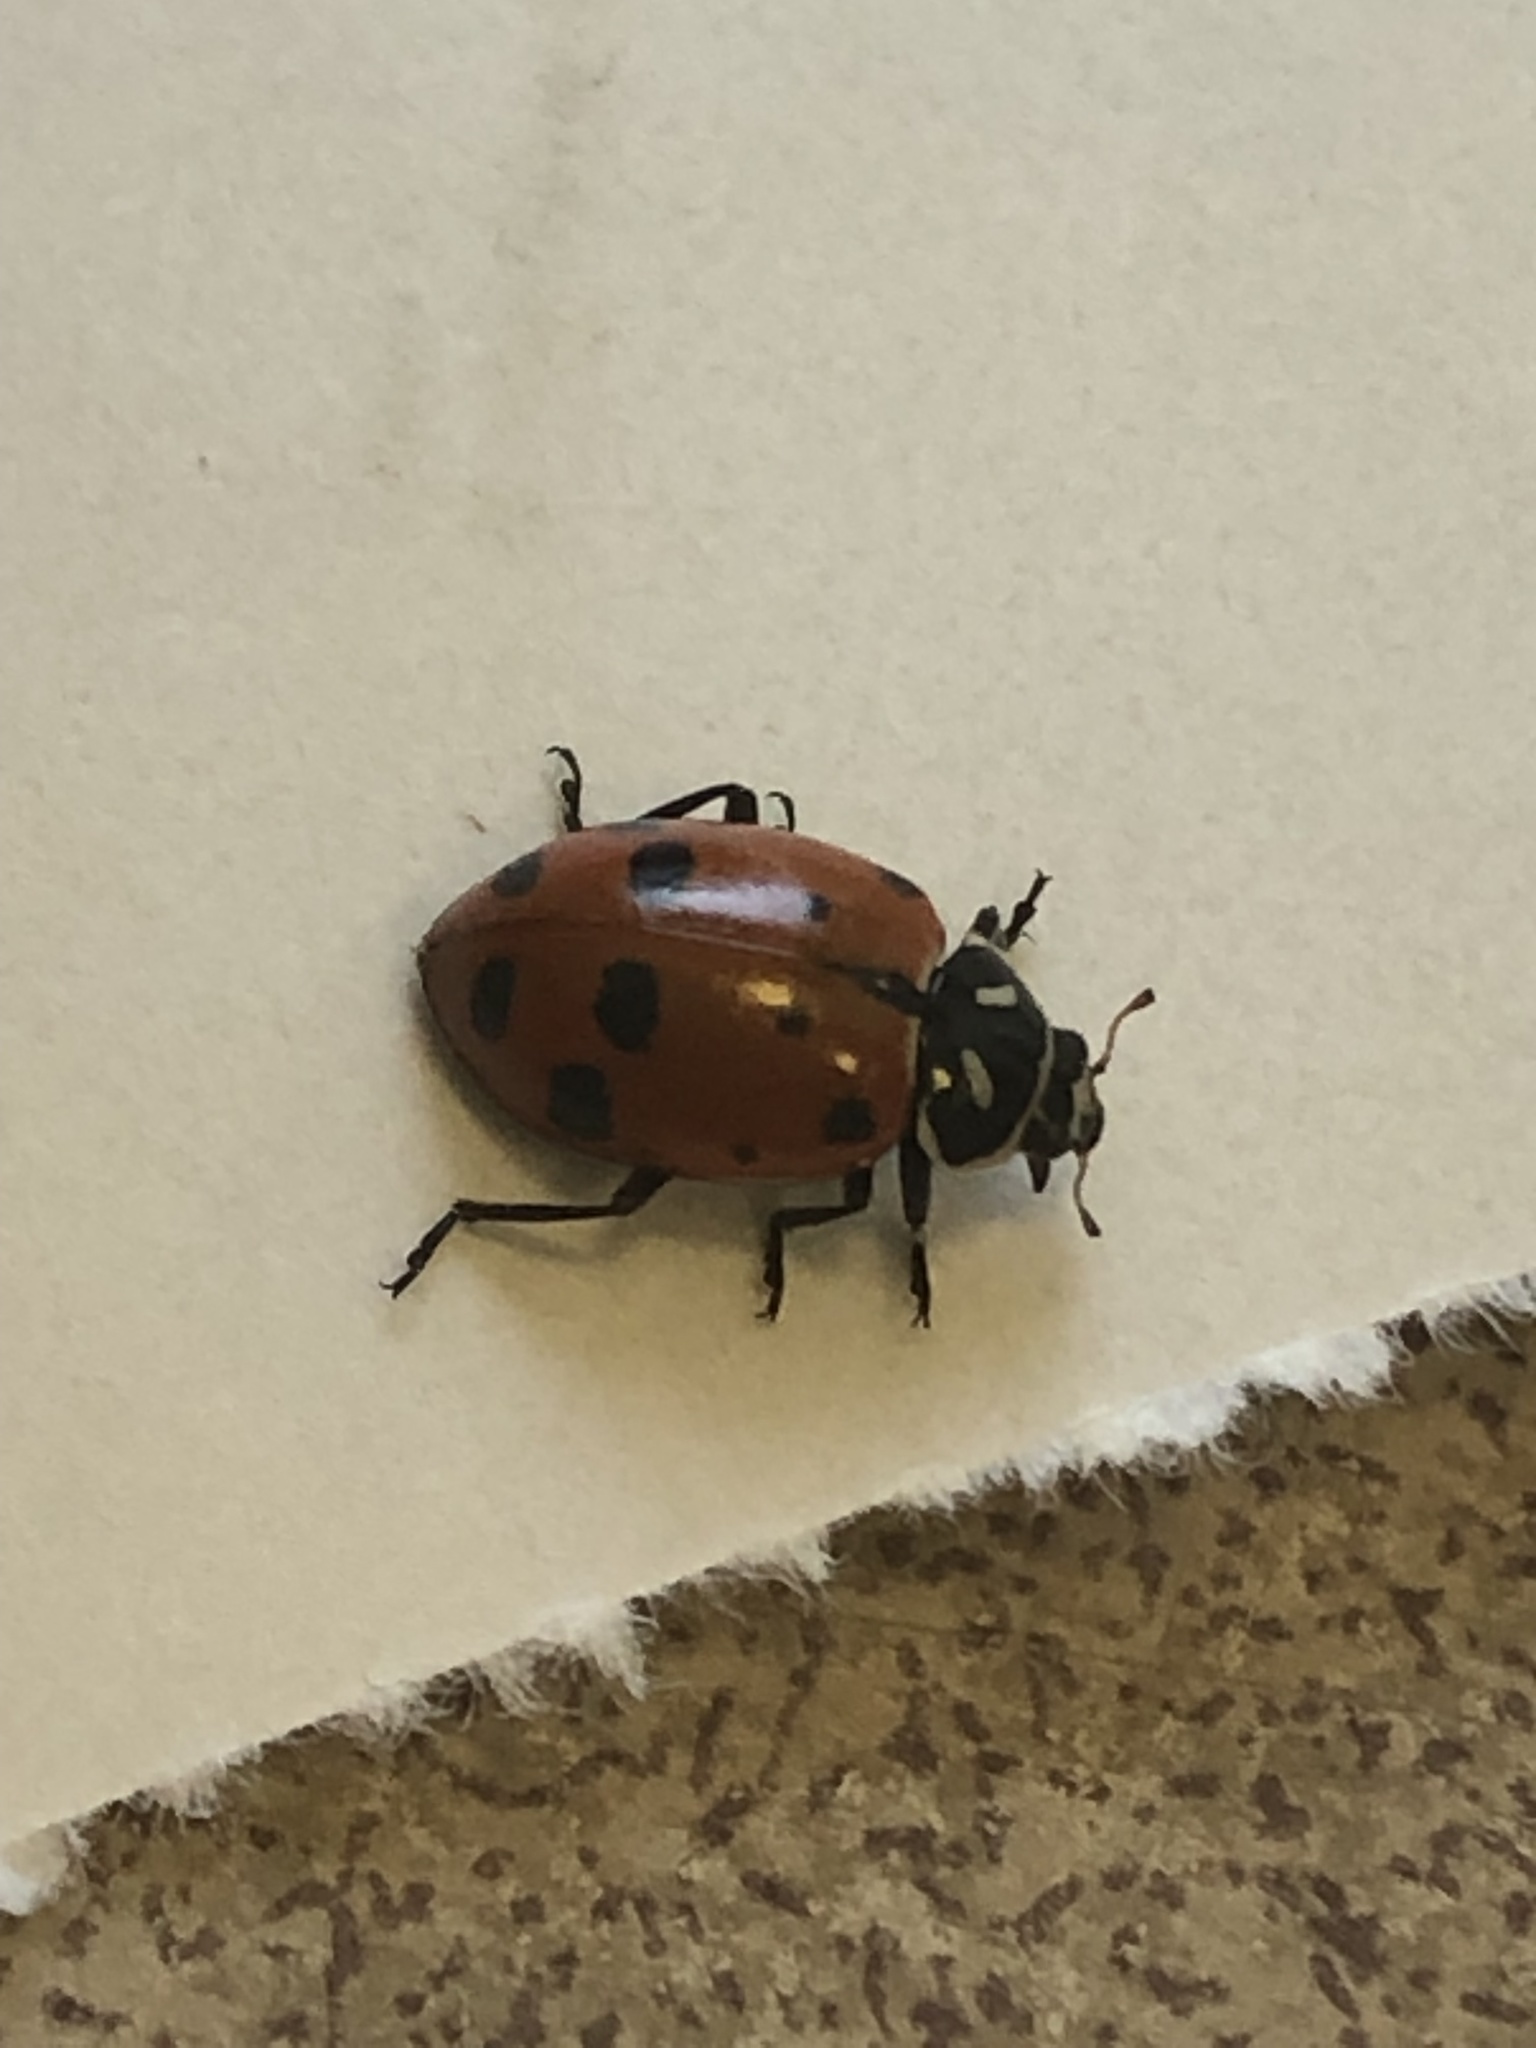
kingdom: Animalia
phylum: Arthropoda
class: Insecta
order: Coleoptera
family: Coccinellidae
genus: Hippodamia
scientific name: Hippodamia convergens
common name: Convergent lady beetle
